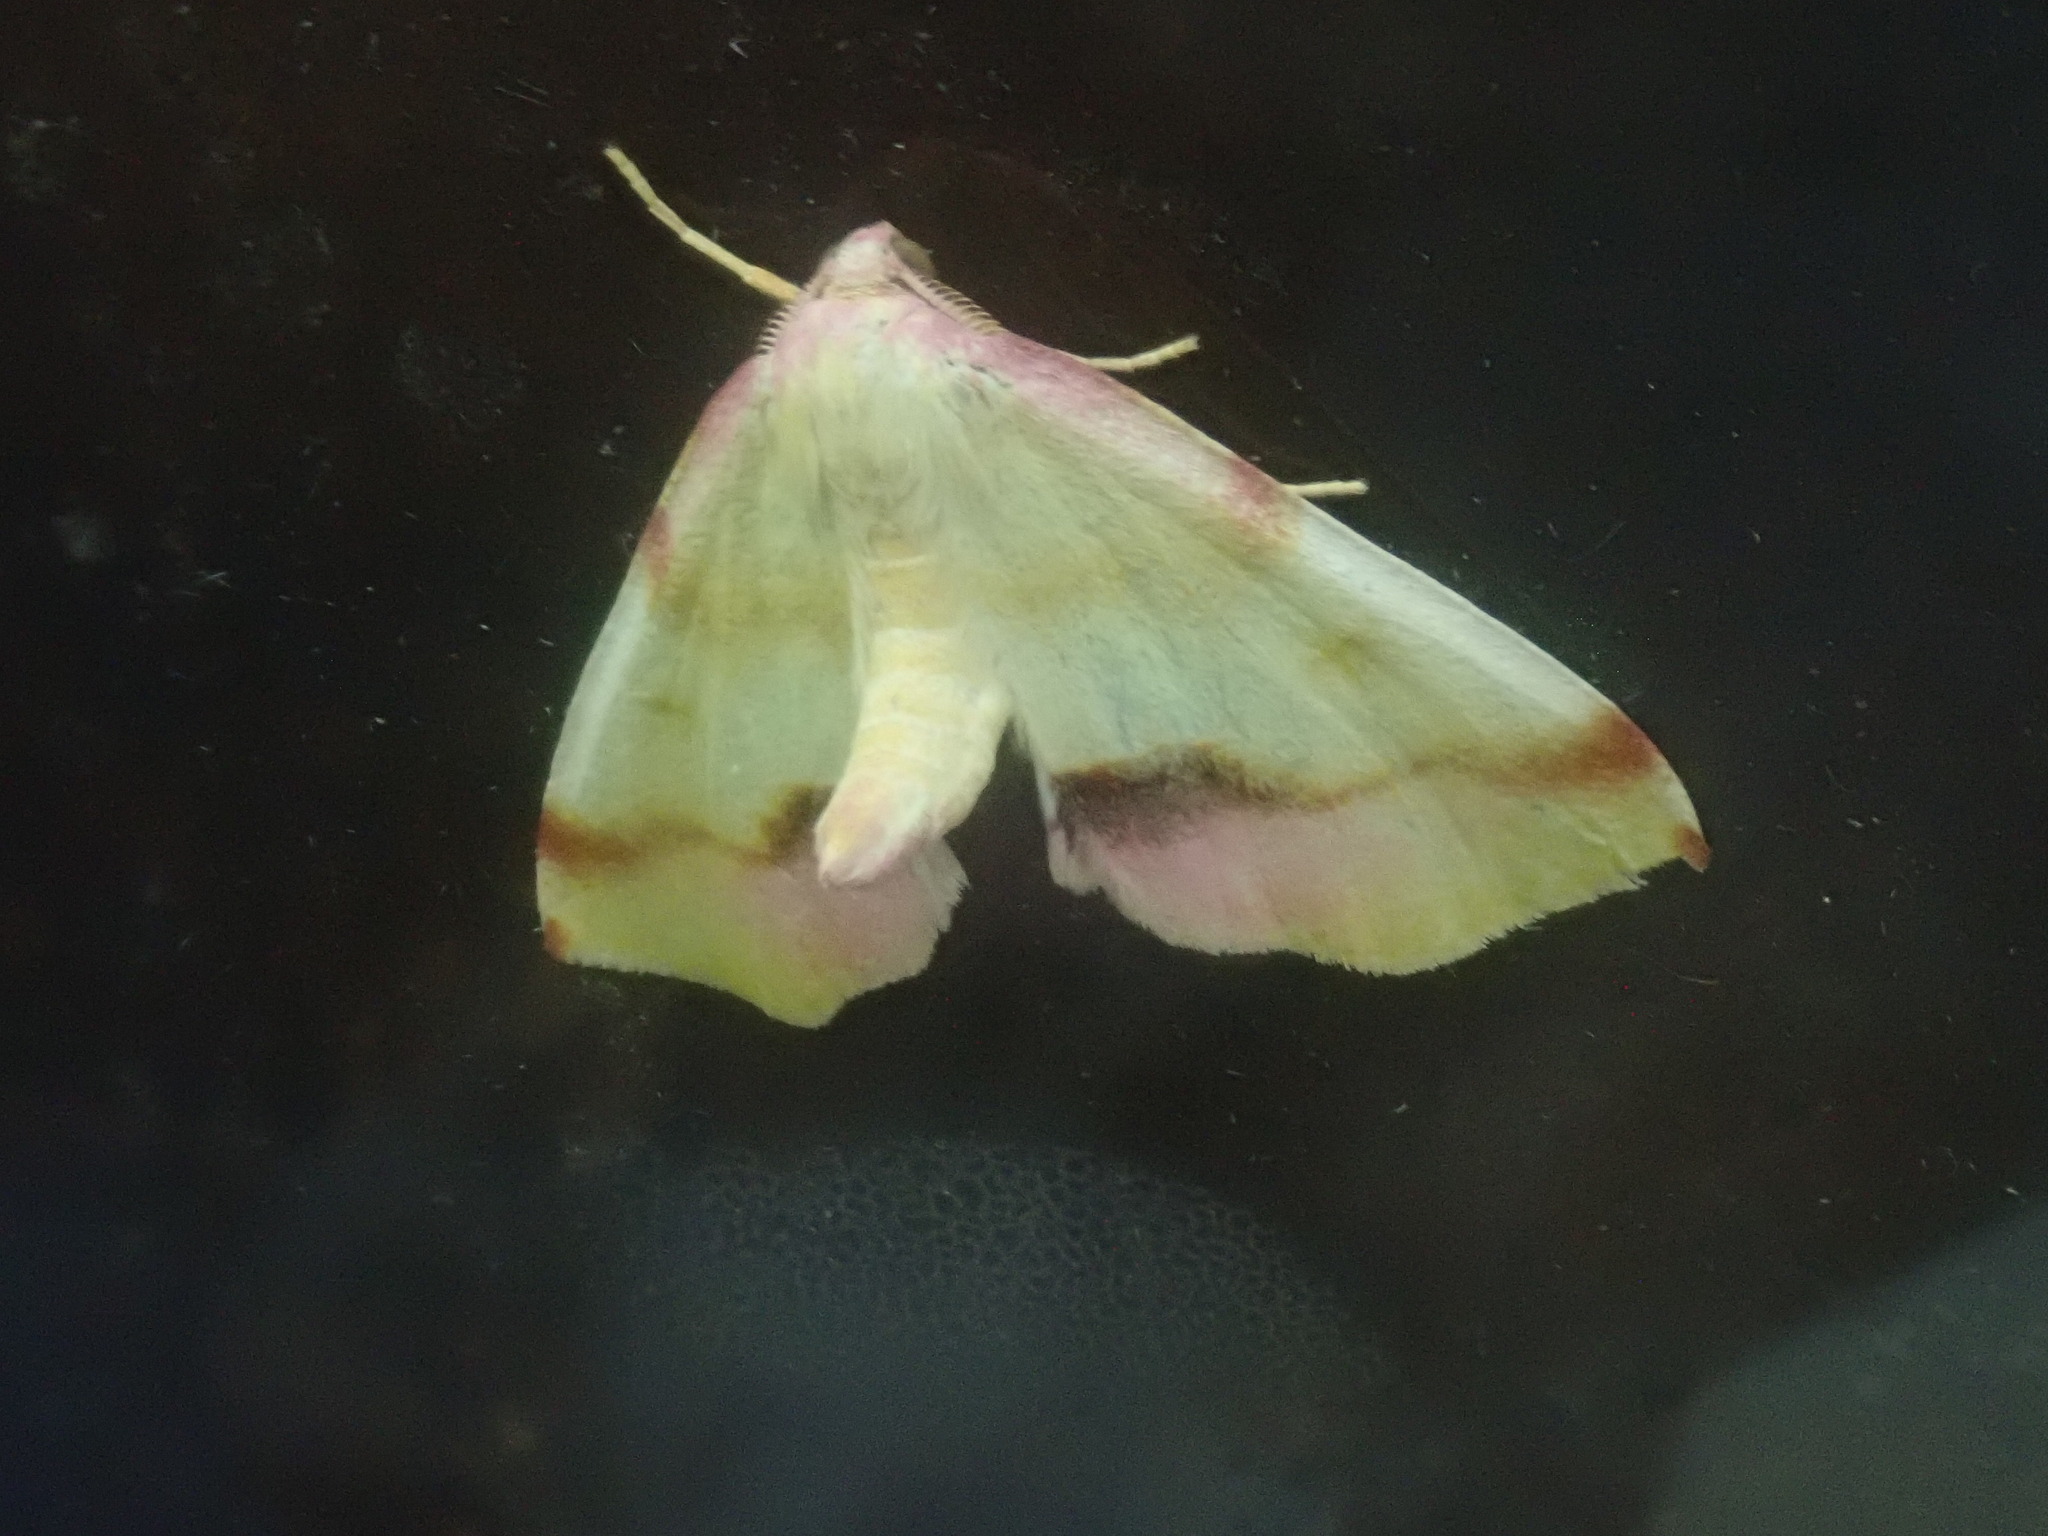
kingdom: Animalia
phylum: Arthropoda
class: Insecta
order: Lepidoptera
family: Geometridae
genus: Plagodis
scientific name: Plagodis serinaria
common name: Lemon plagodis
